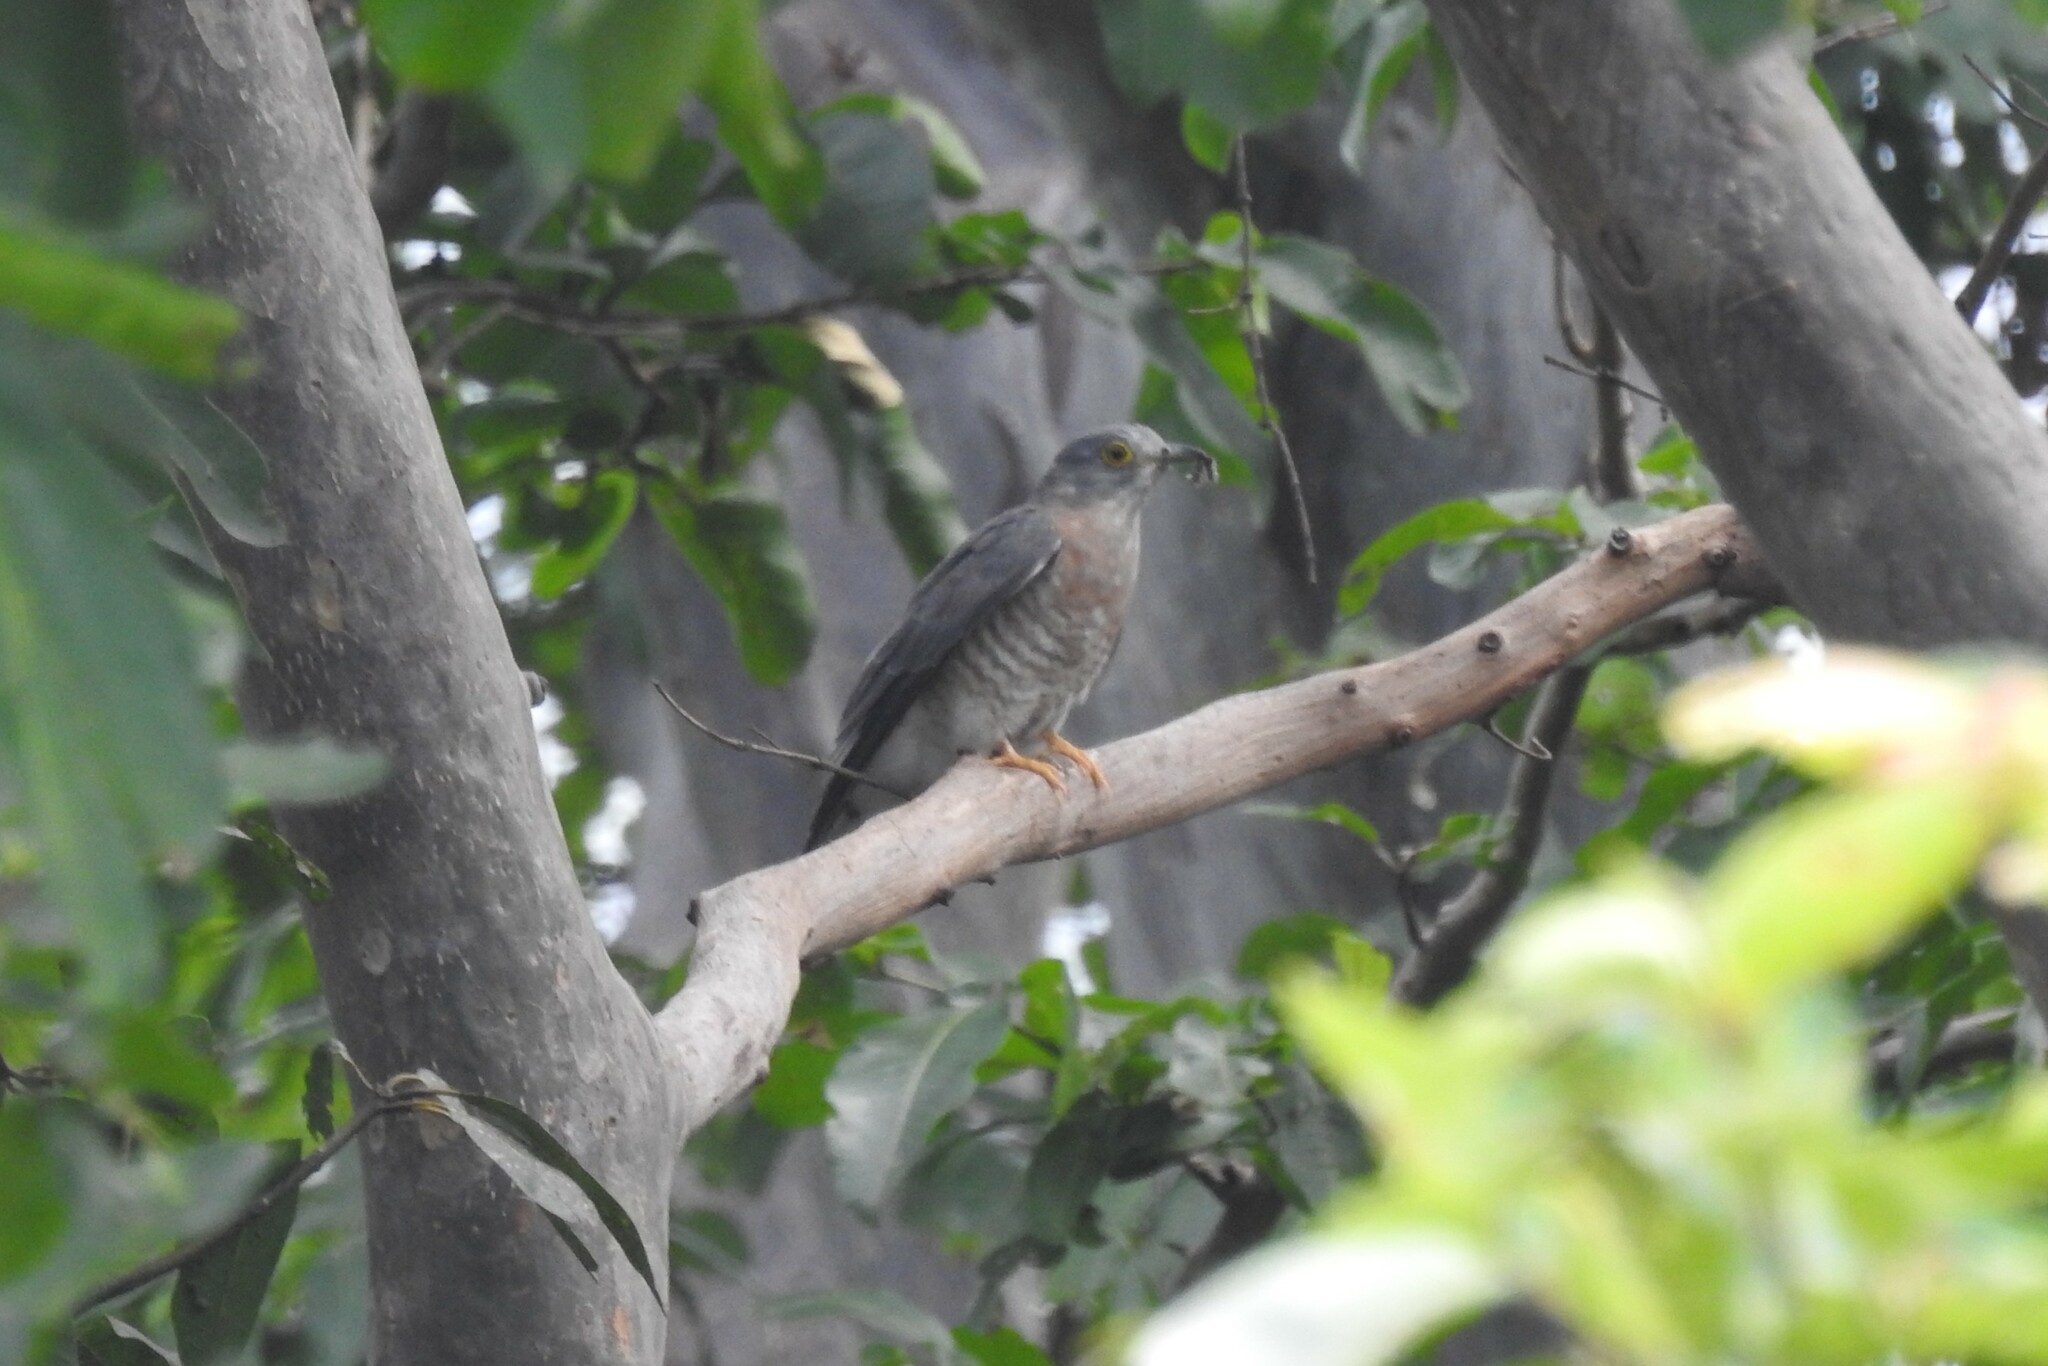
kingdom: Animalia
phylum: Chordata
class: Aves
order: Cuculiformes
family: Cuculidae
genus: Cuculus
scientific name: Cuculus varius
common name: Common hawk cuckoo
